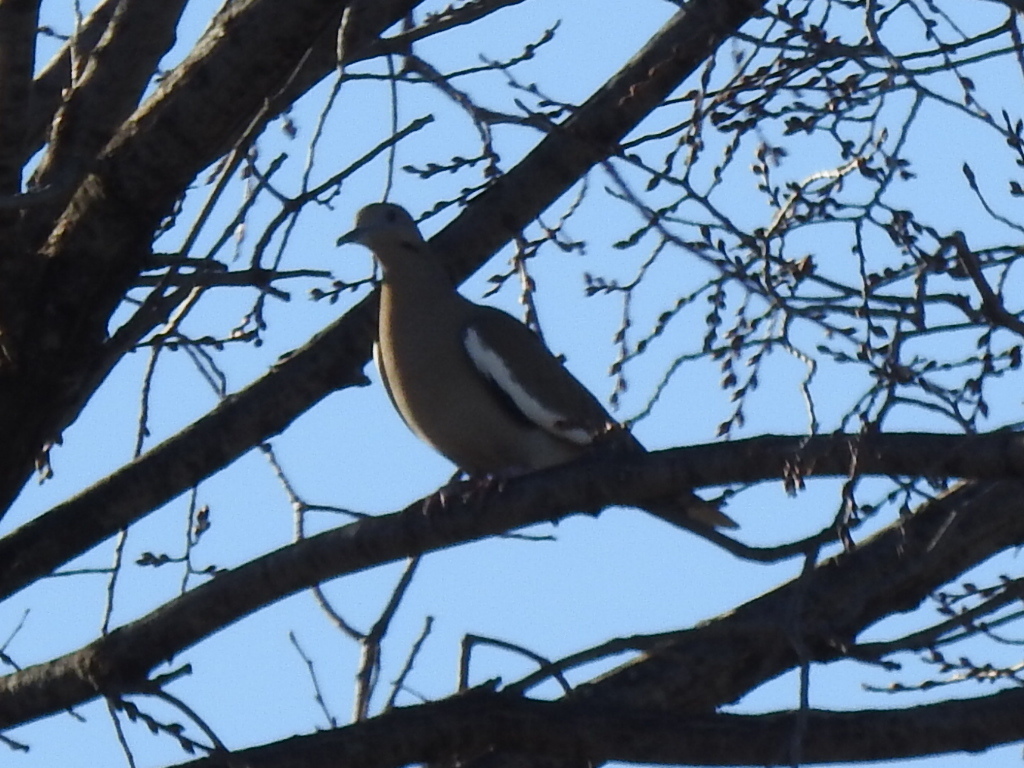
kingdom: Animalia
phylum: Chordata
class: Aves
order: Columbiformes
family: Columbidae
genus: Zenaida
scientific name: Zenaida asiatica
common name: White-winged dove
